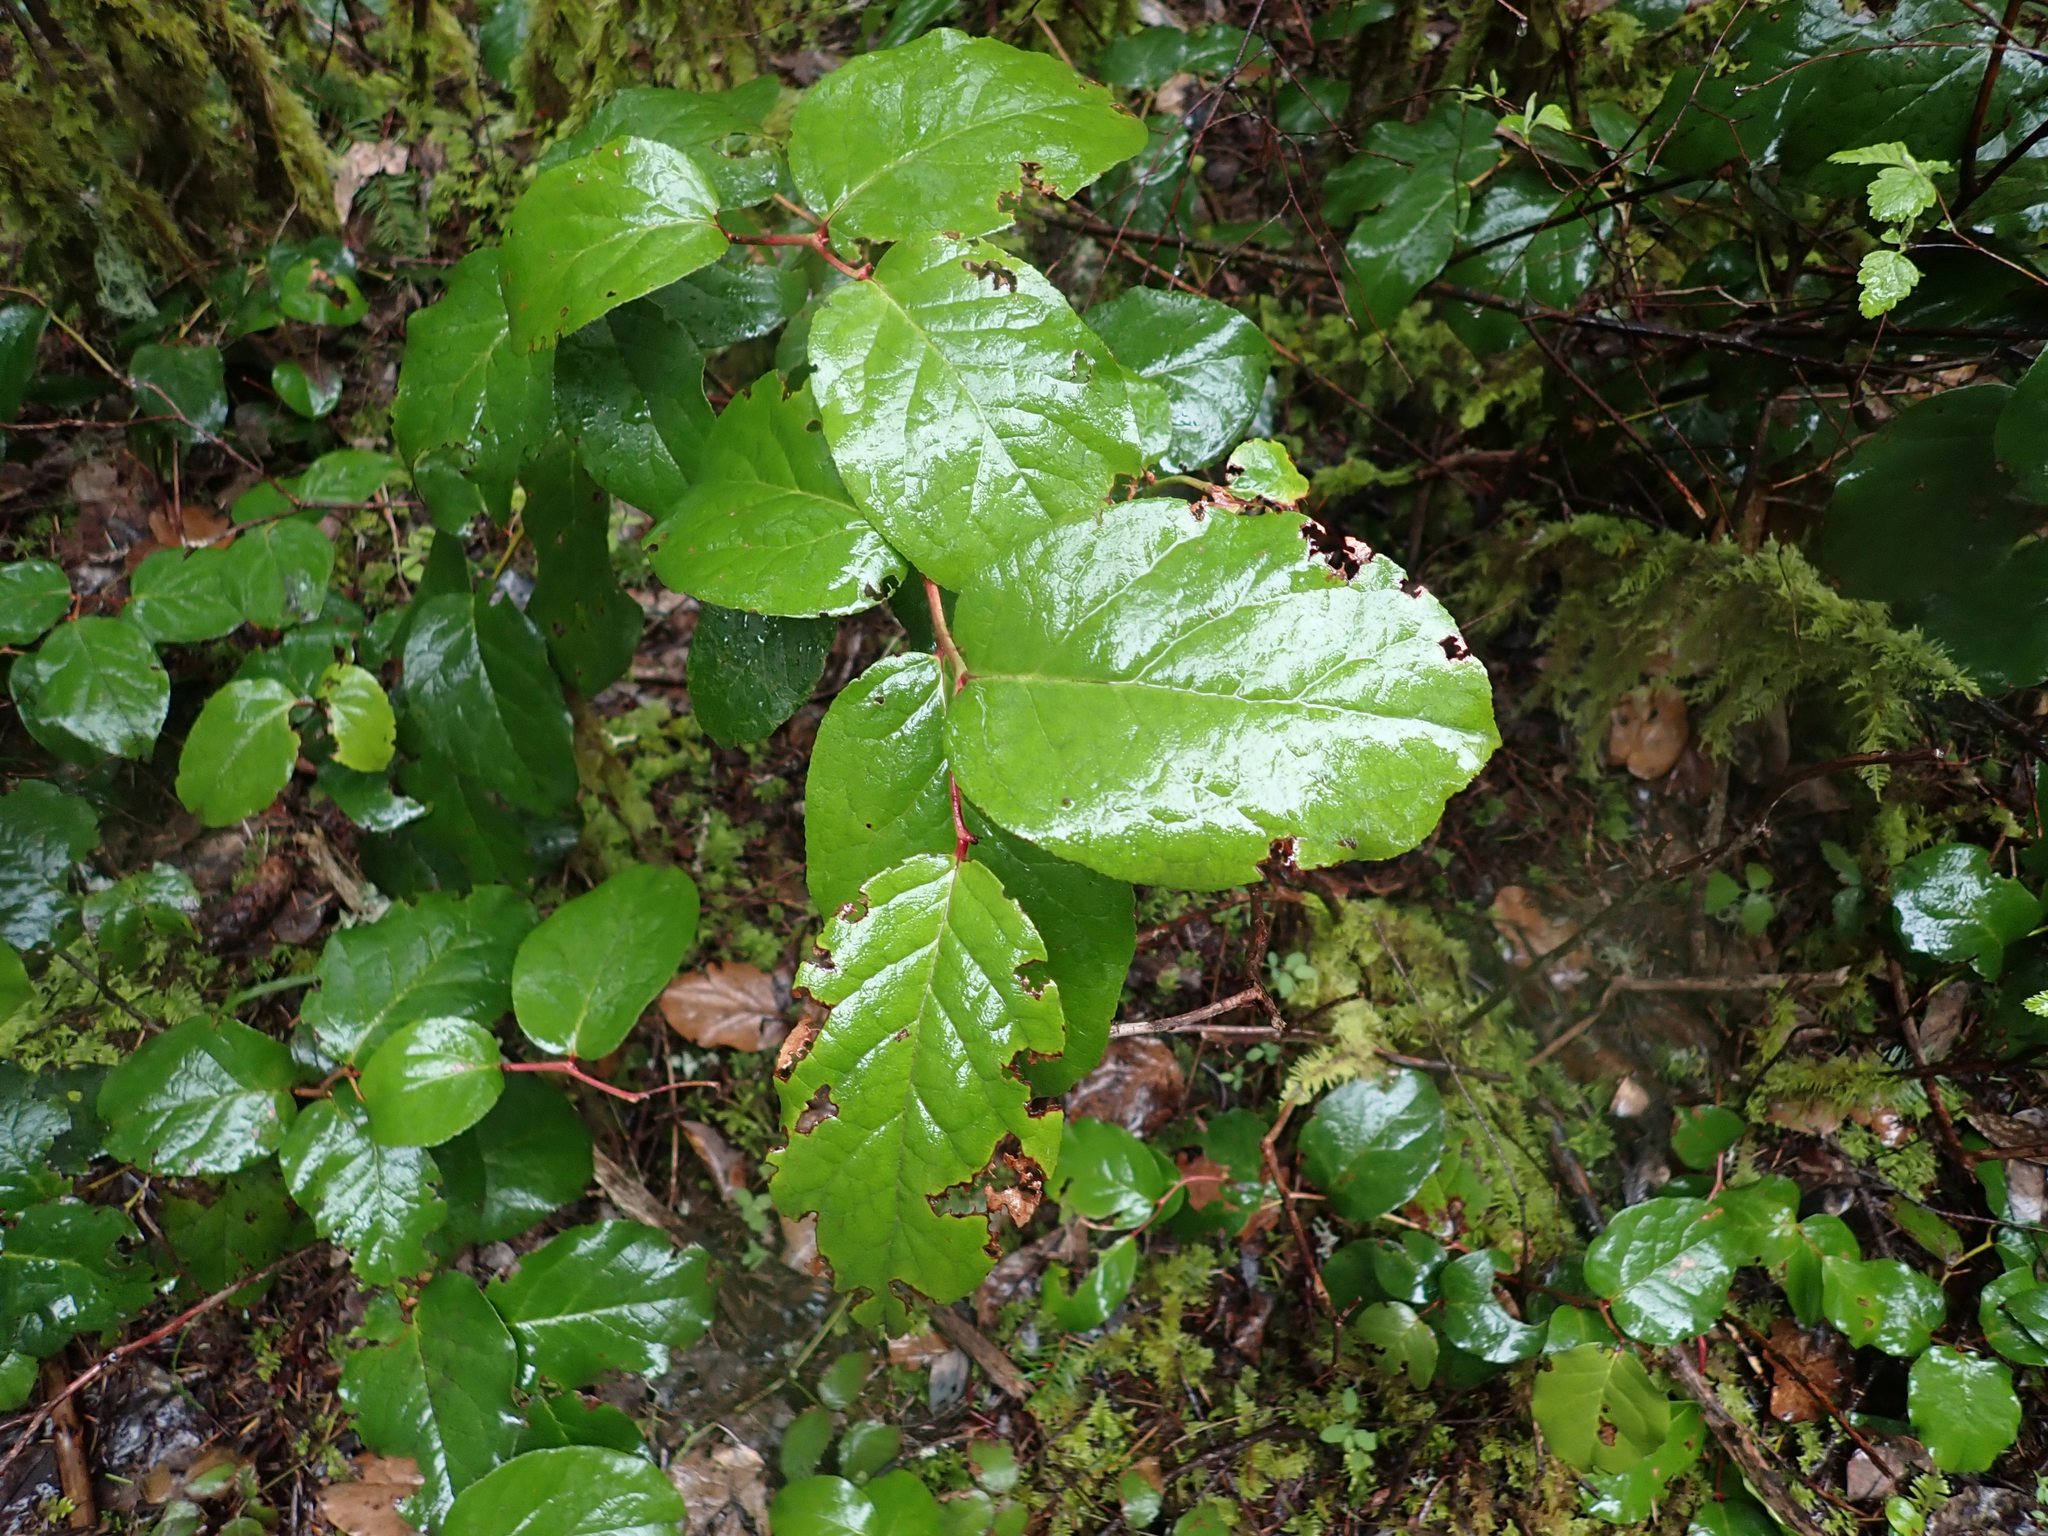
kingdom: Plantae
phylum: Tracheophyta
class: Magnoliopsida
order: Ericales
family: Ericaceae
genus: Gaultheria
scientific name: Gaultheria shallon
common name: Shallon
